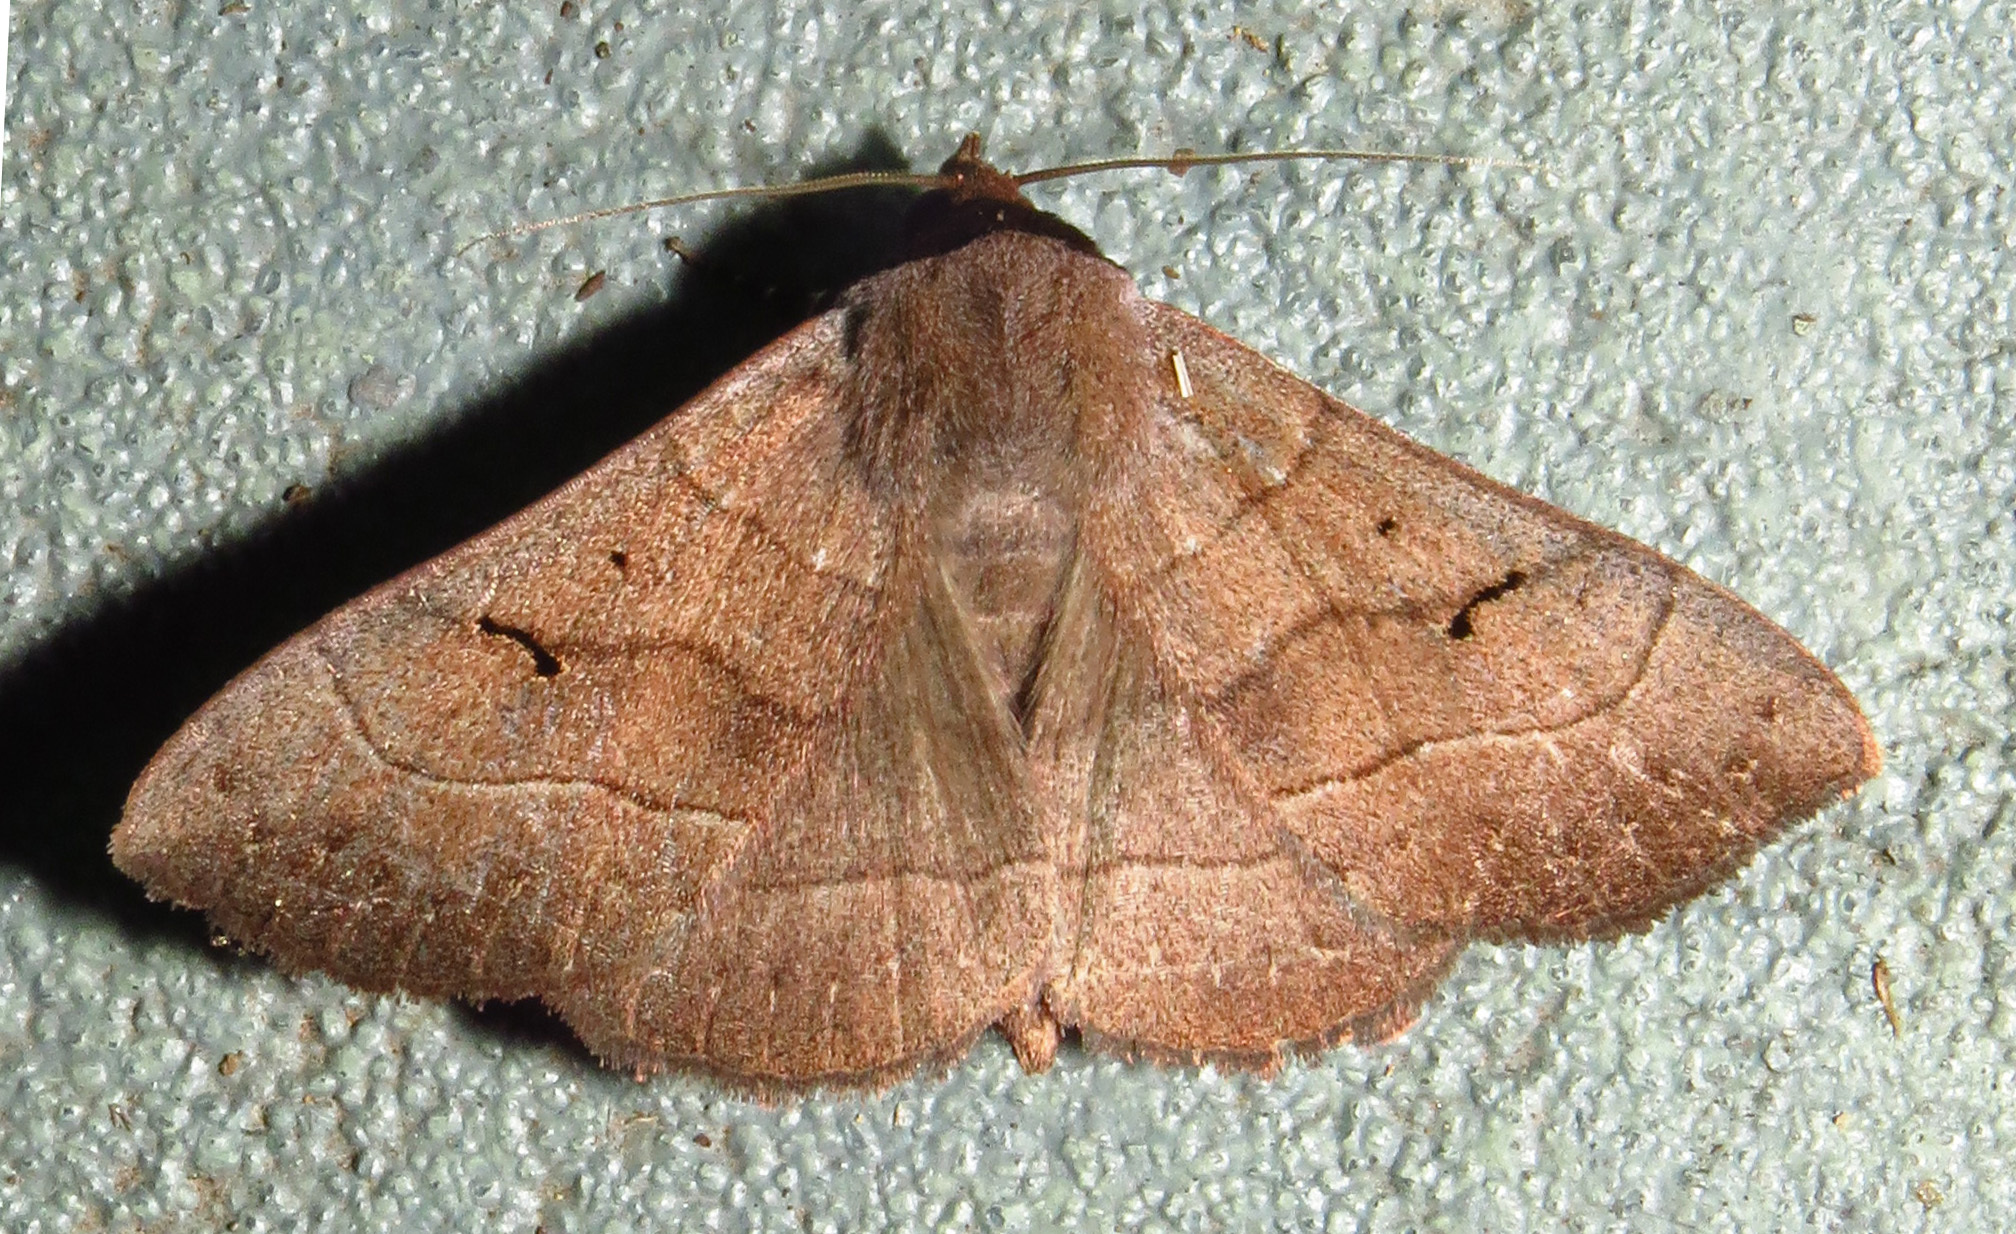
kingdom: Animalia
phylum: Arthropoda
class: Insecta
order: Lepidoptera
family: Erebidae
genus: Panopoda
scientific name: Panopoda carneicosta
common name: Brown panopoda moth
